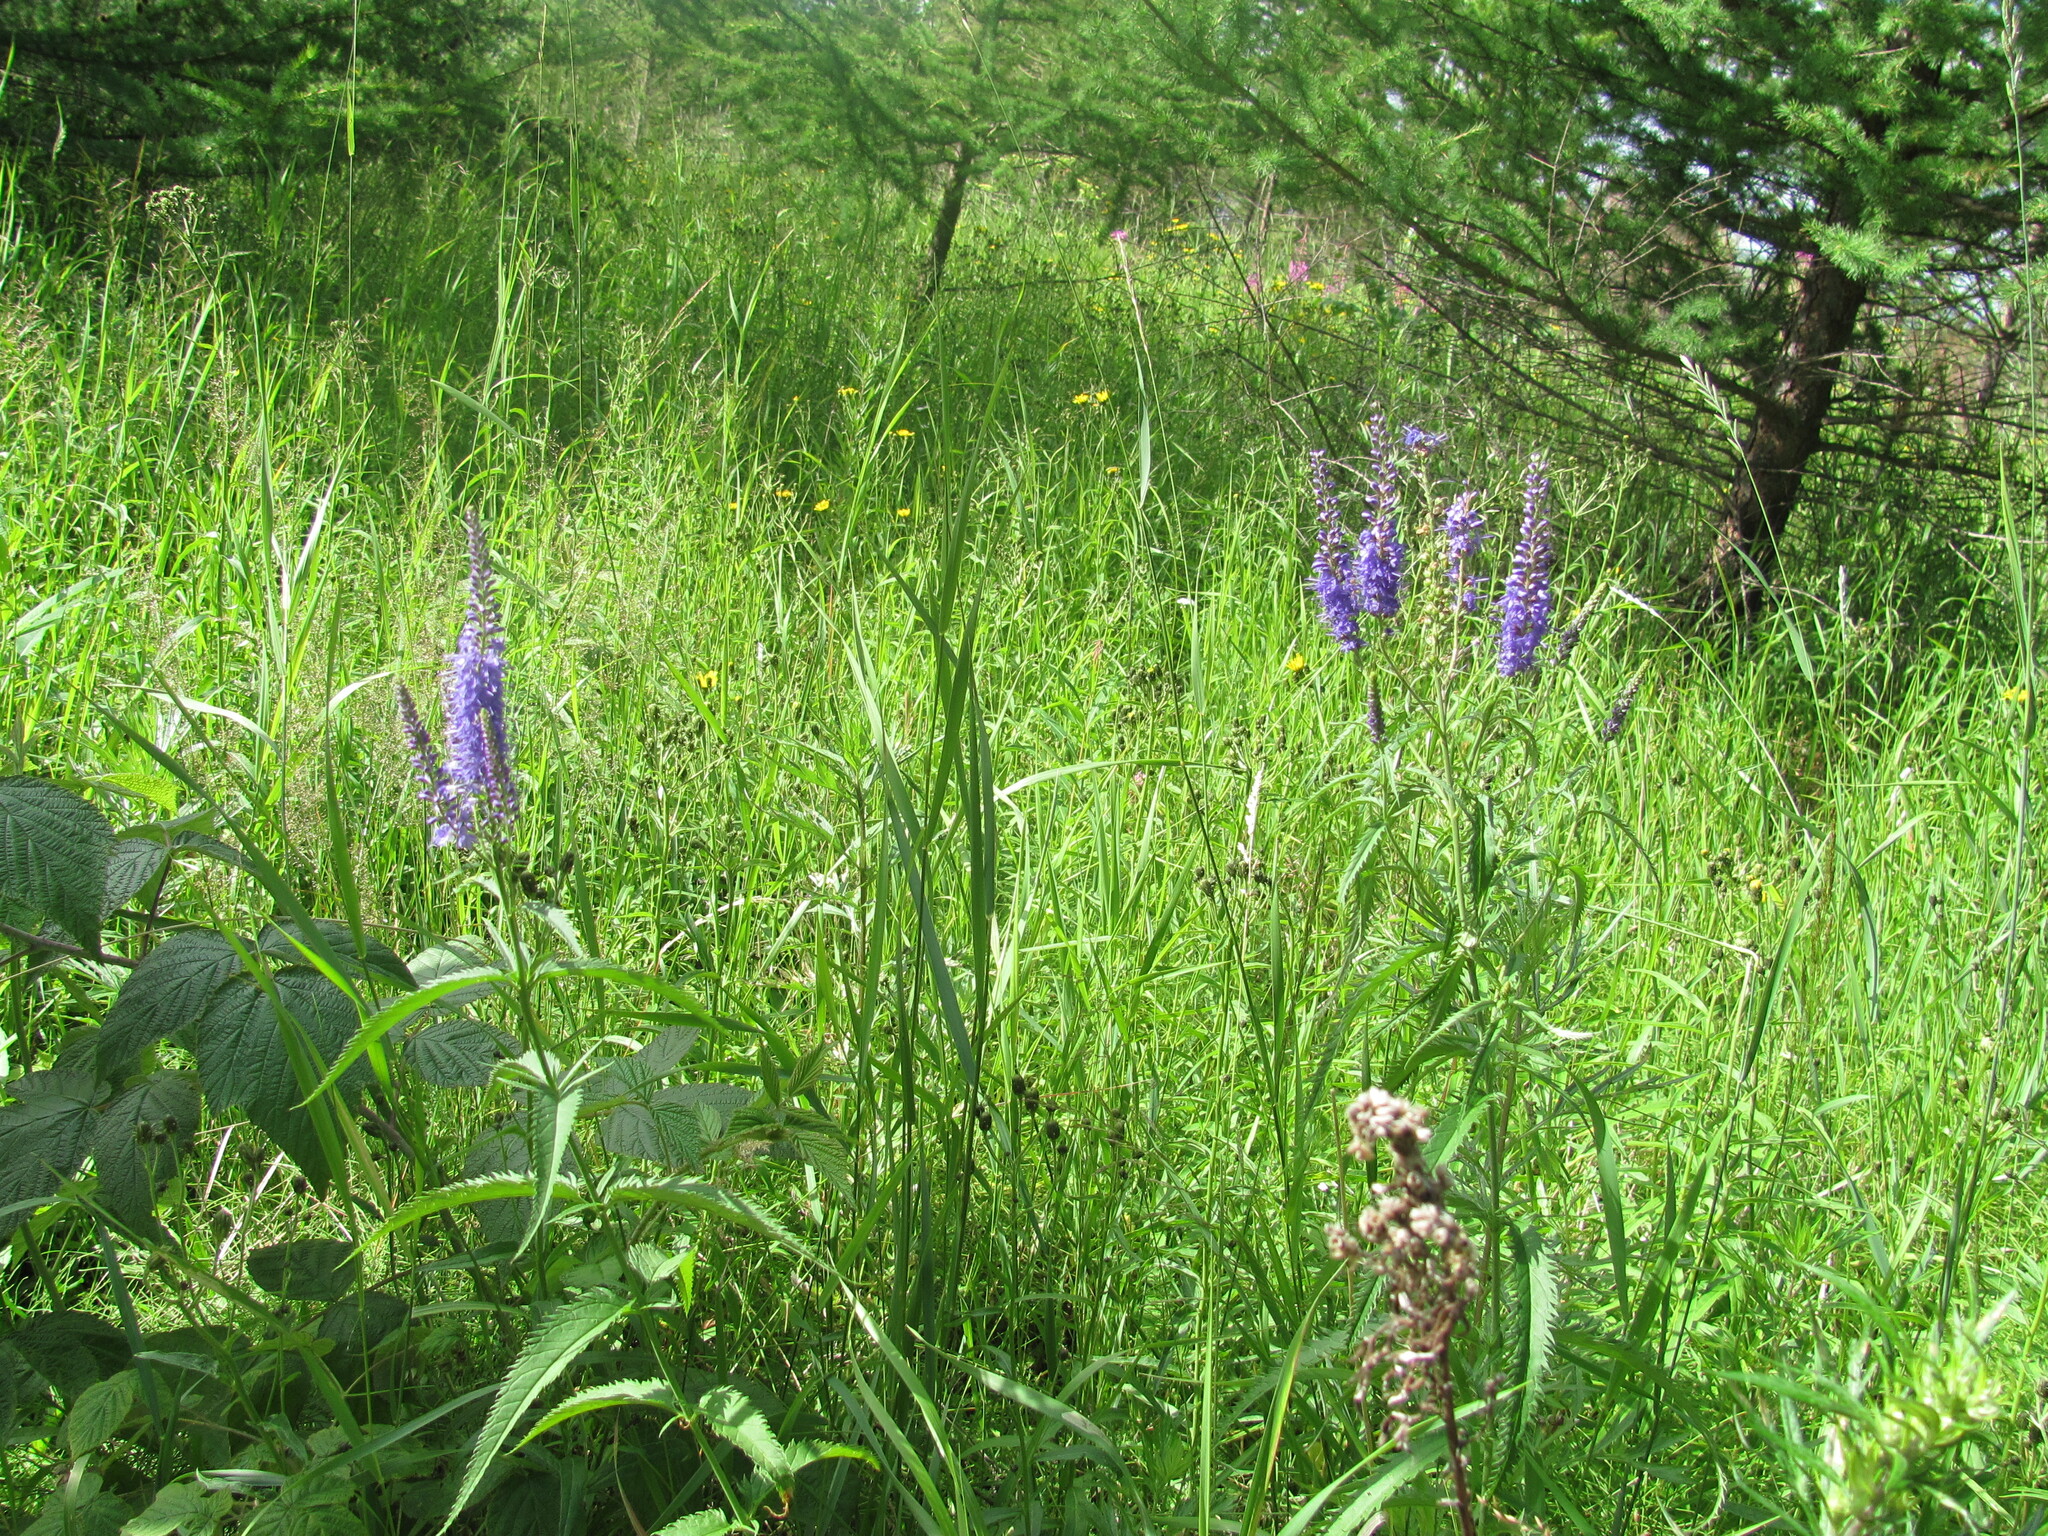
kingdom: Plantae
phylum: Tracheophyta
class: Magnoliopsida
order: Lamiales
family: Plantaginaceae
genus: Veronica
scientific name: Veronica longifolia
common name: Garden speedwell
